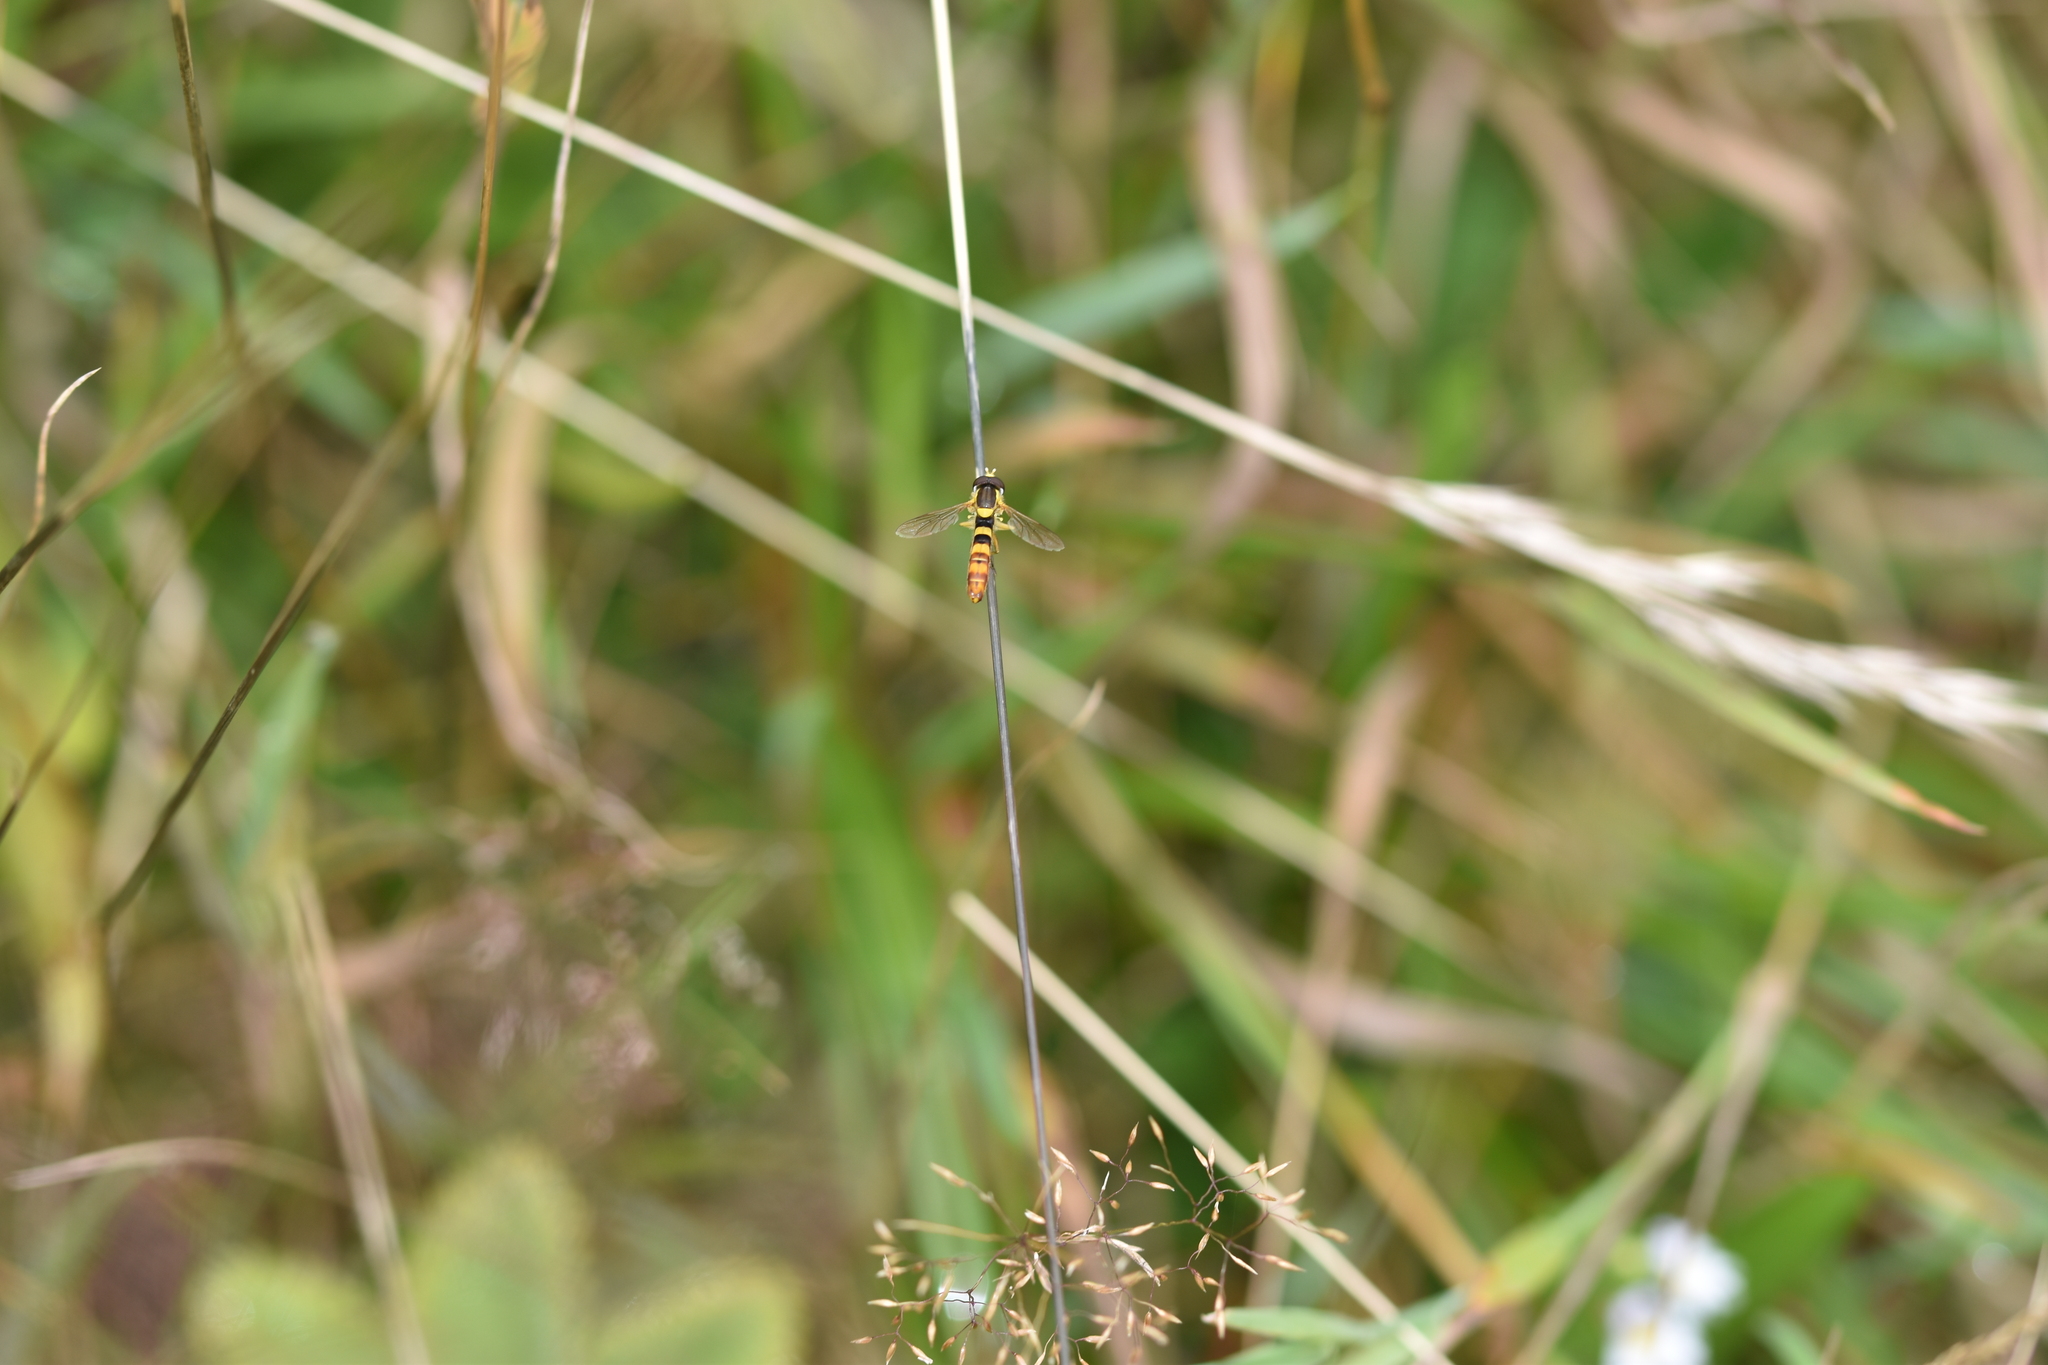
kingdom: Animalia
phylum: Arthropoda
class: Insecta
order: Diptera
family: Syrphidae
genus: Sphaerophoria
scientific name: Sphaerophoria scripta
